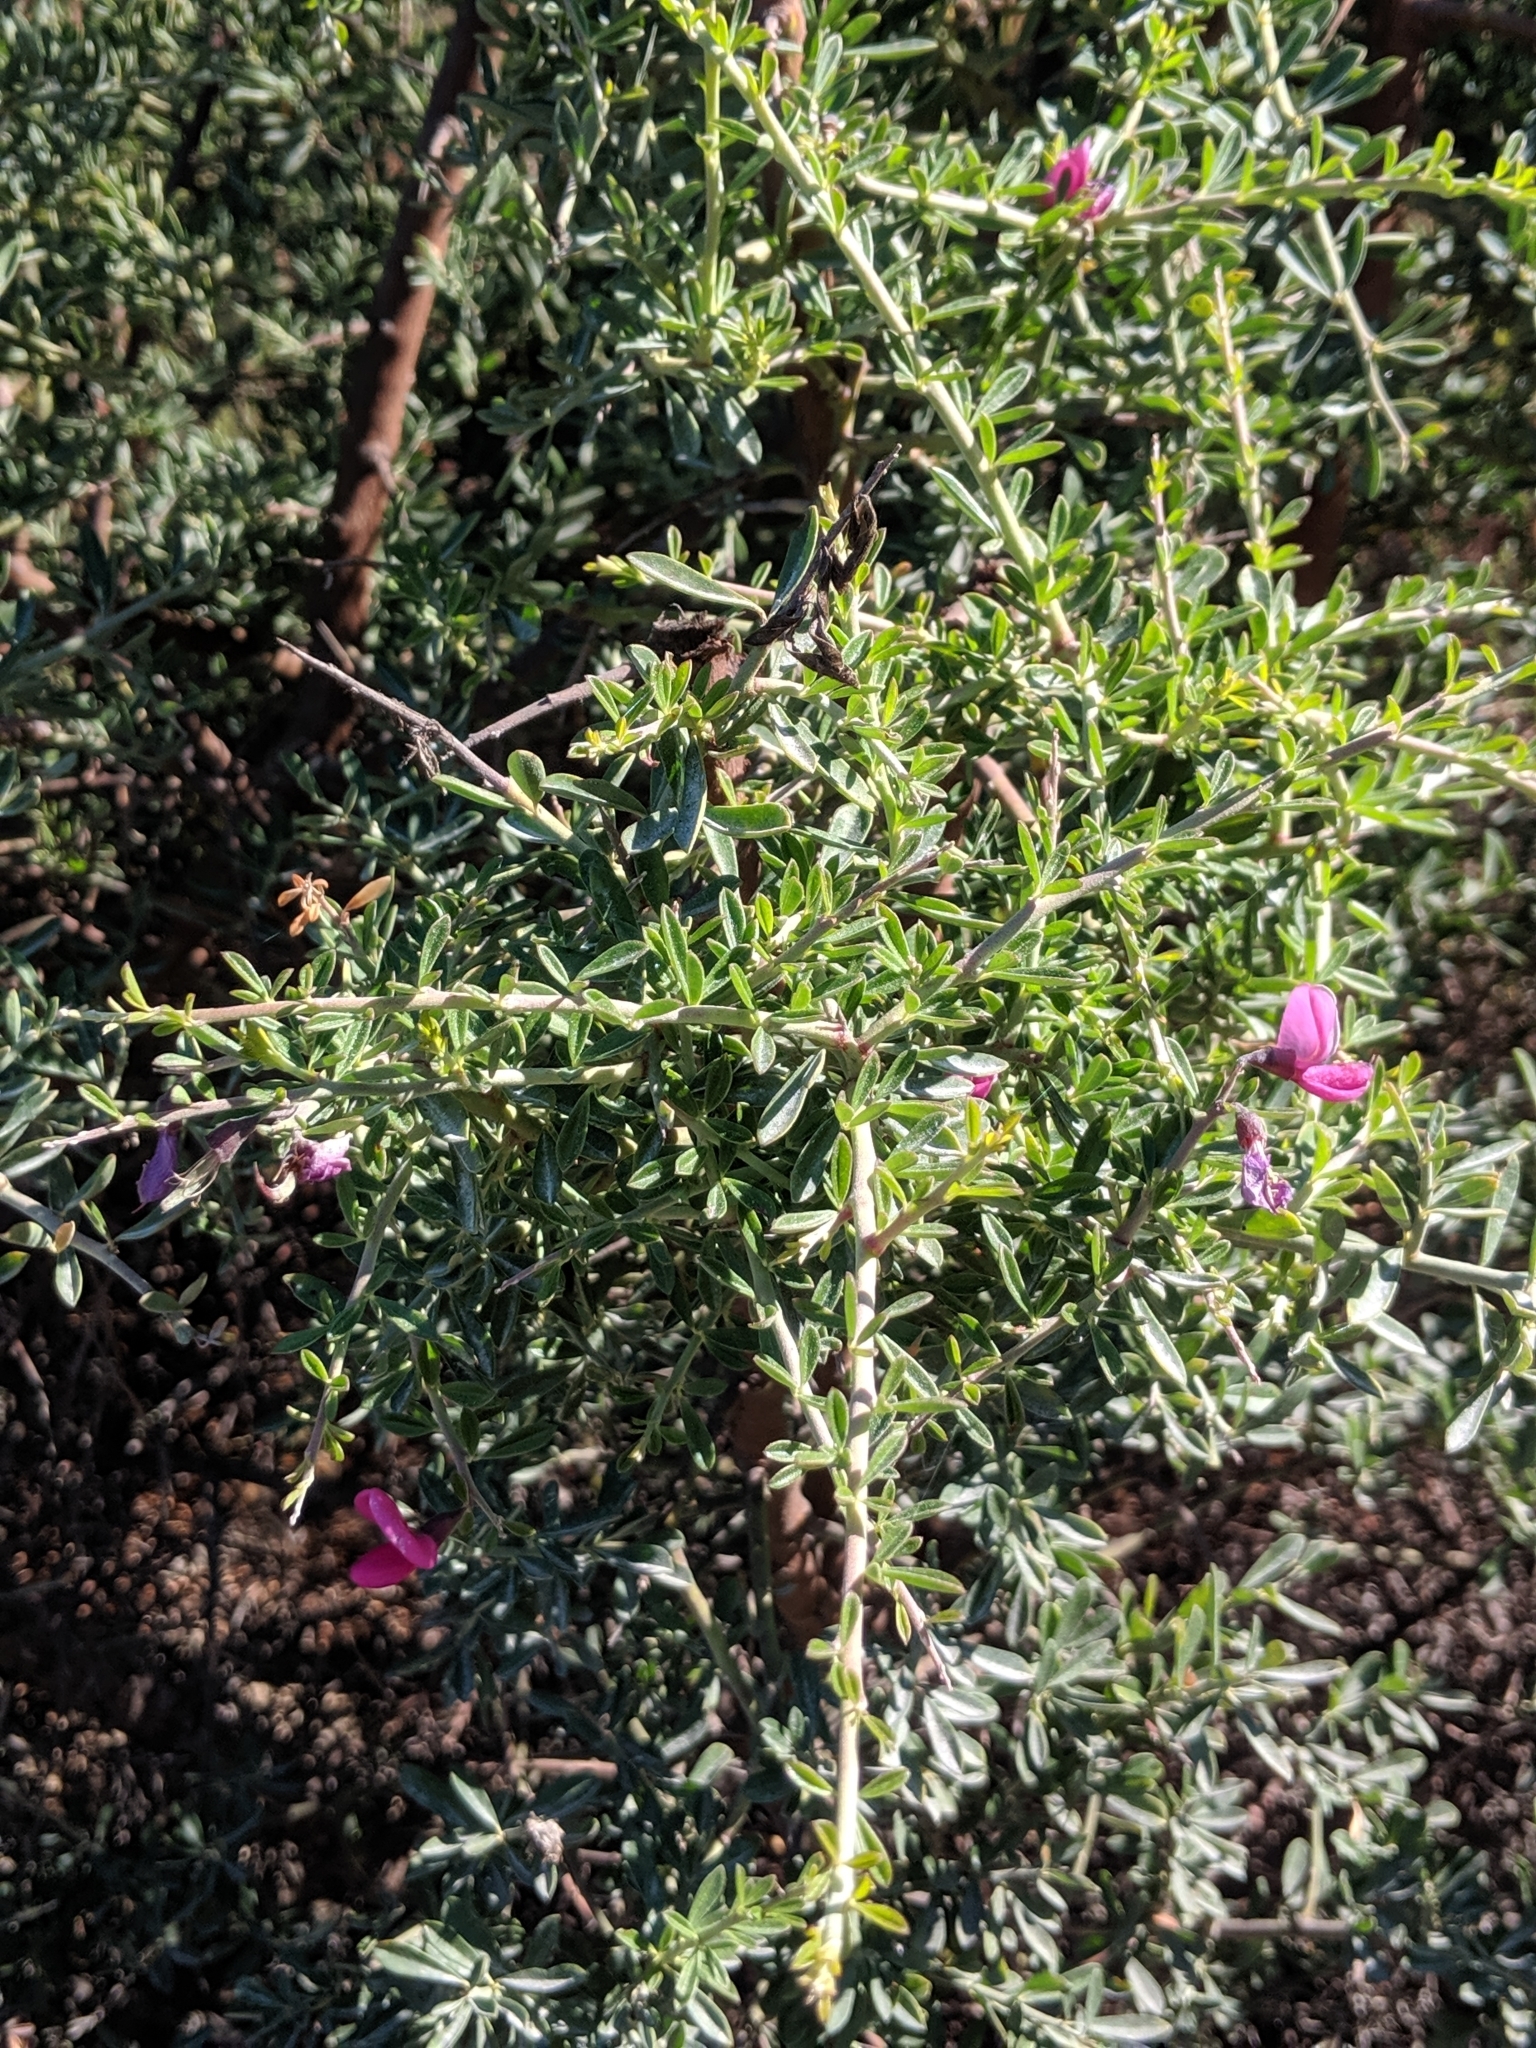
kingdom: Plantae
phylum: Tracheophyta
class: Magnoliopsida
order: Fabales
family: Fabaceae
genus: Pickeringia
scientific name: Pickeringia montana
